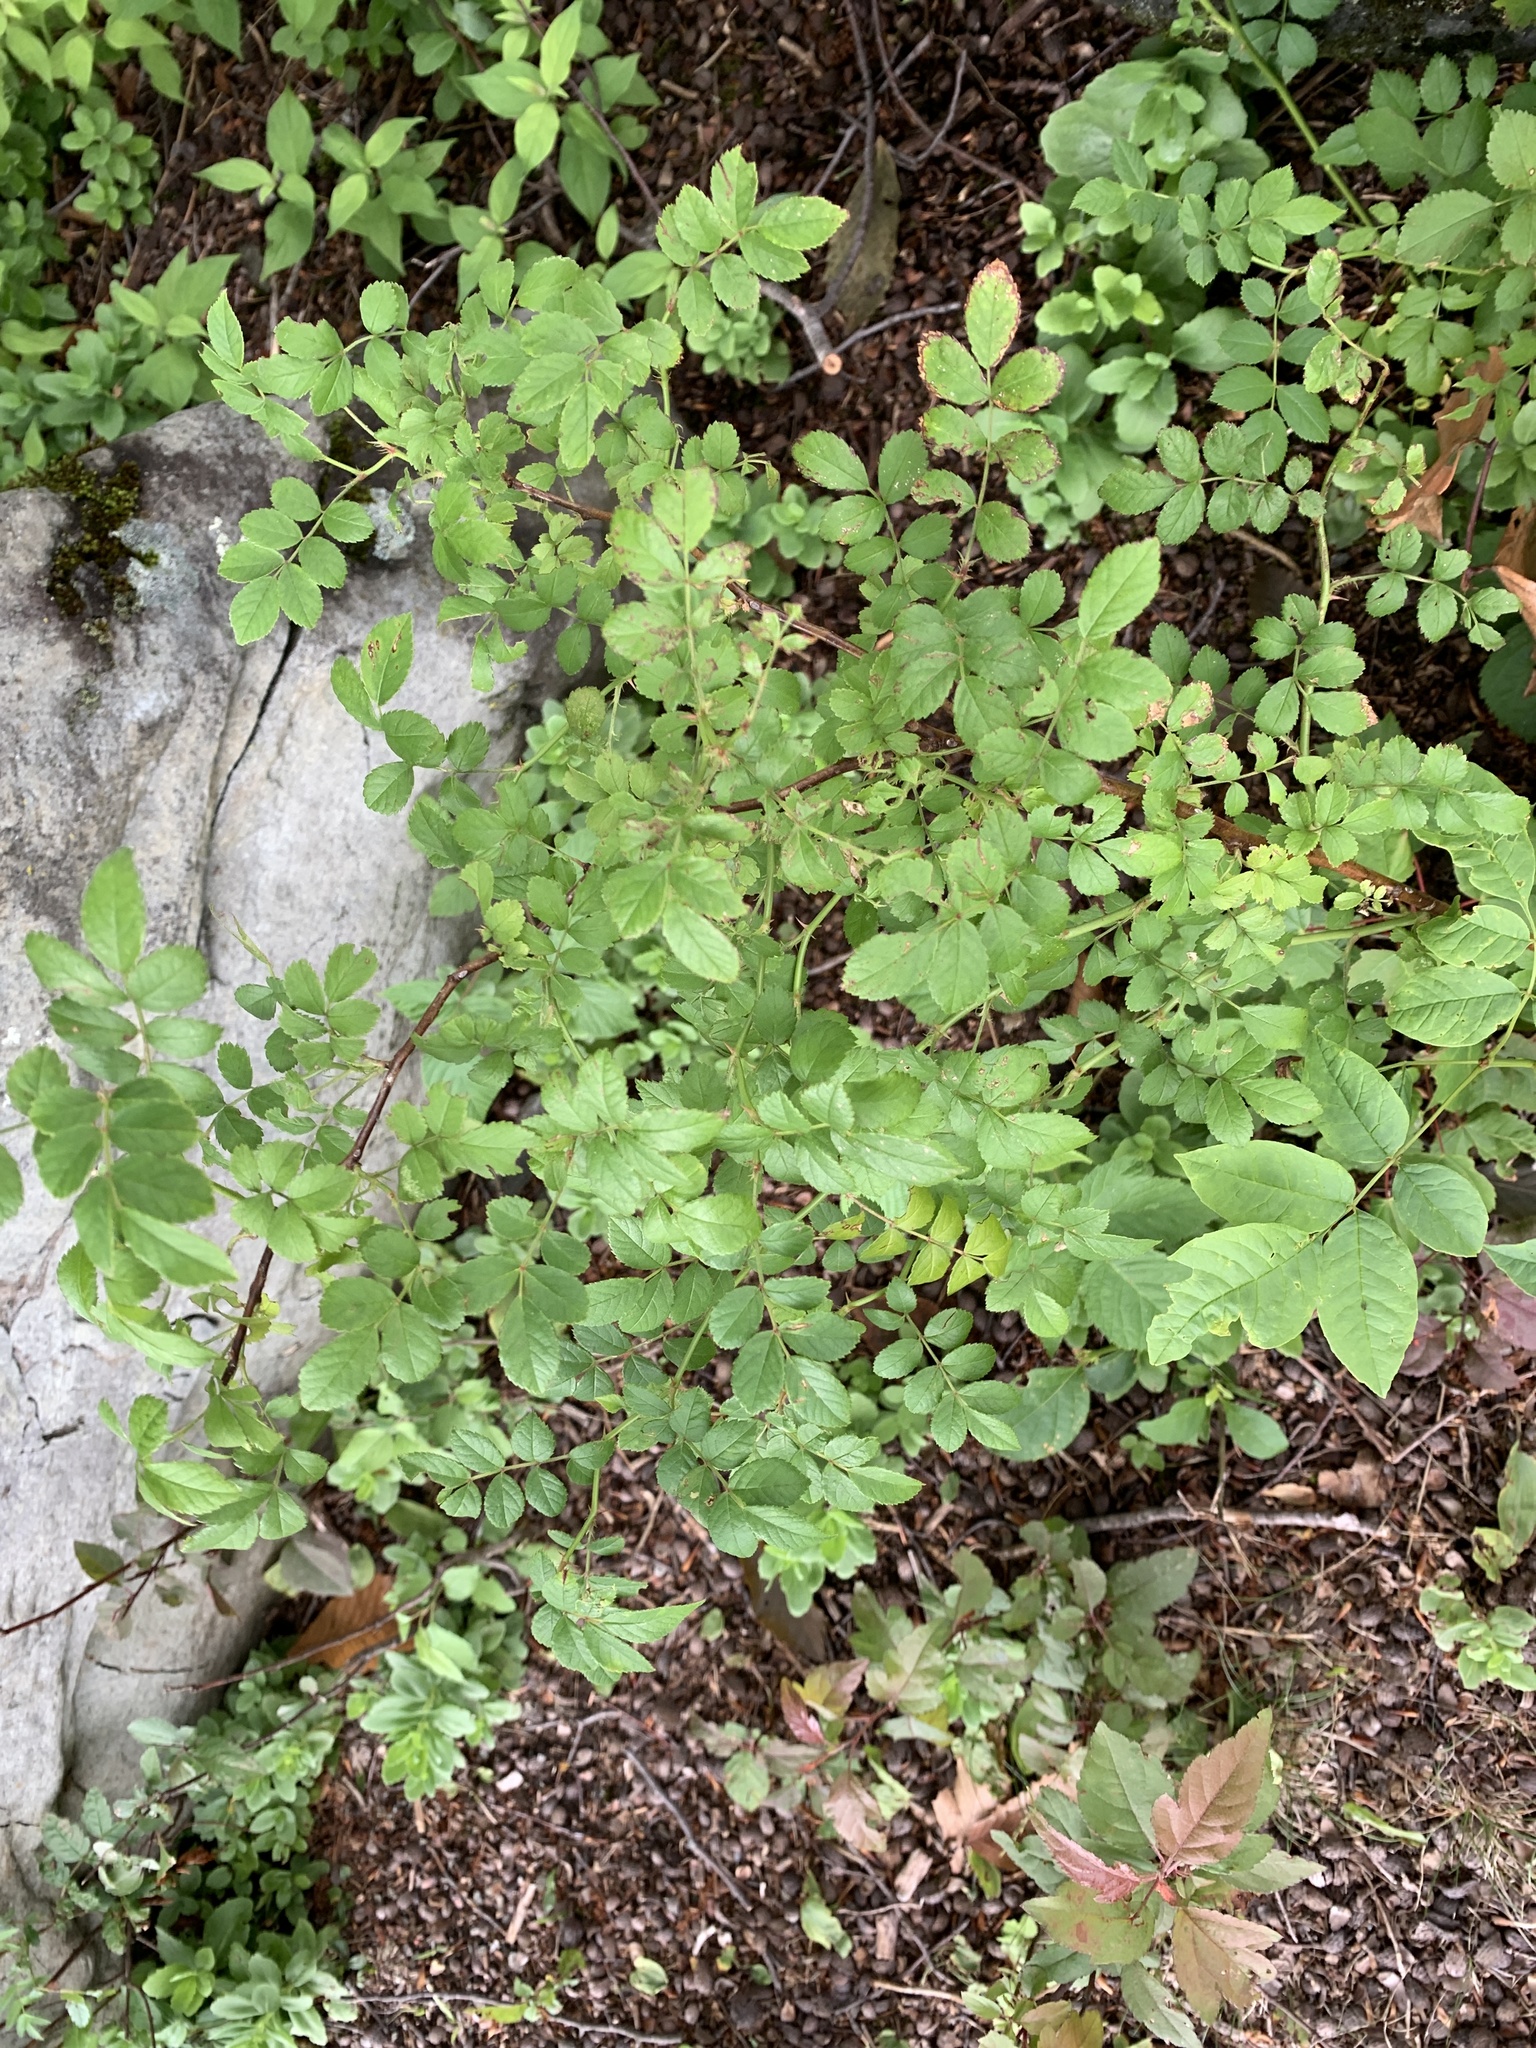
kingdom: Plantae
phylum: Tracheophyta
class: Magnoliopsida
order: Rosales
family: Rosaceae
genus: Rosa
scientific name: Rosa multiflora
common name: Multiflora rose
